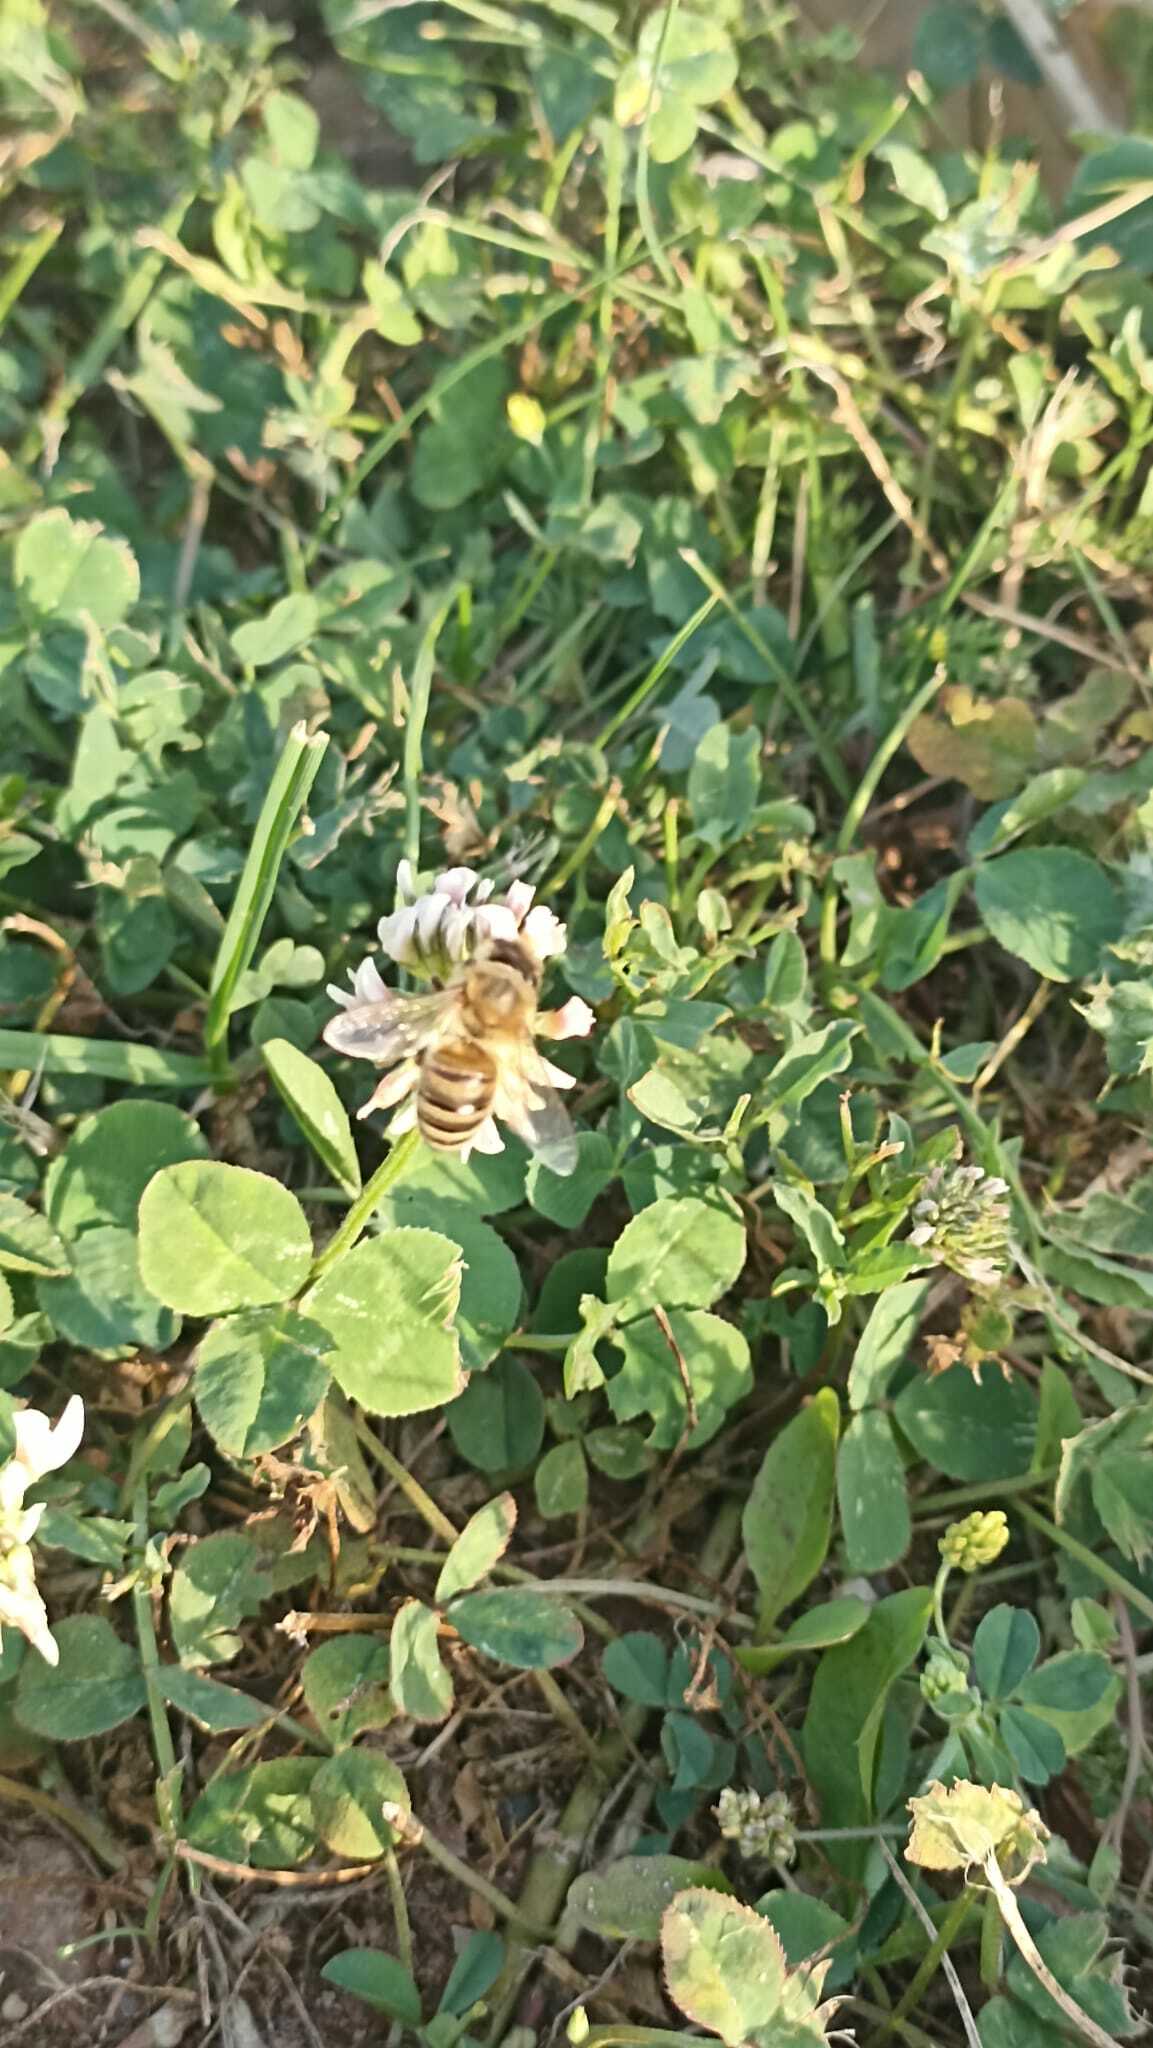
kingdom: Animalia
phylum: Arthropoda
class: Insecta
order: Hymenoptera
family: Apidae
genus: Apis
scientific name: Apis mellifera
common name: Honey bee
